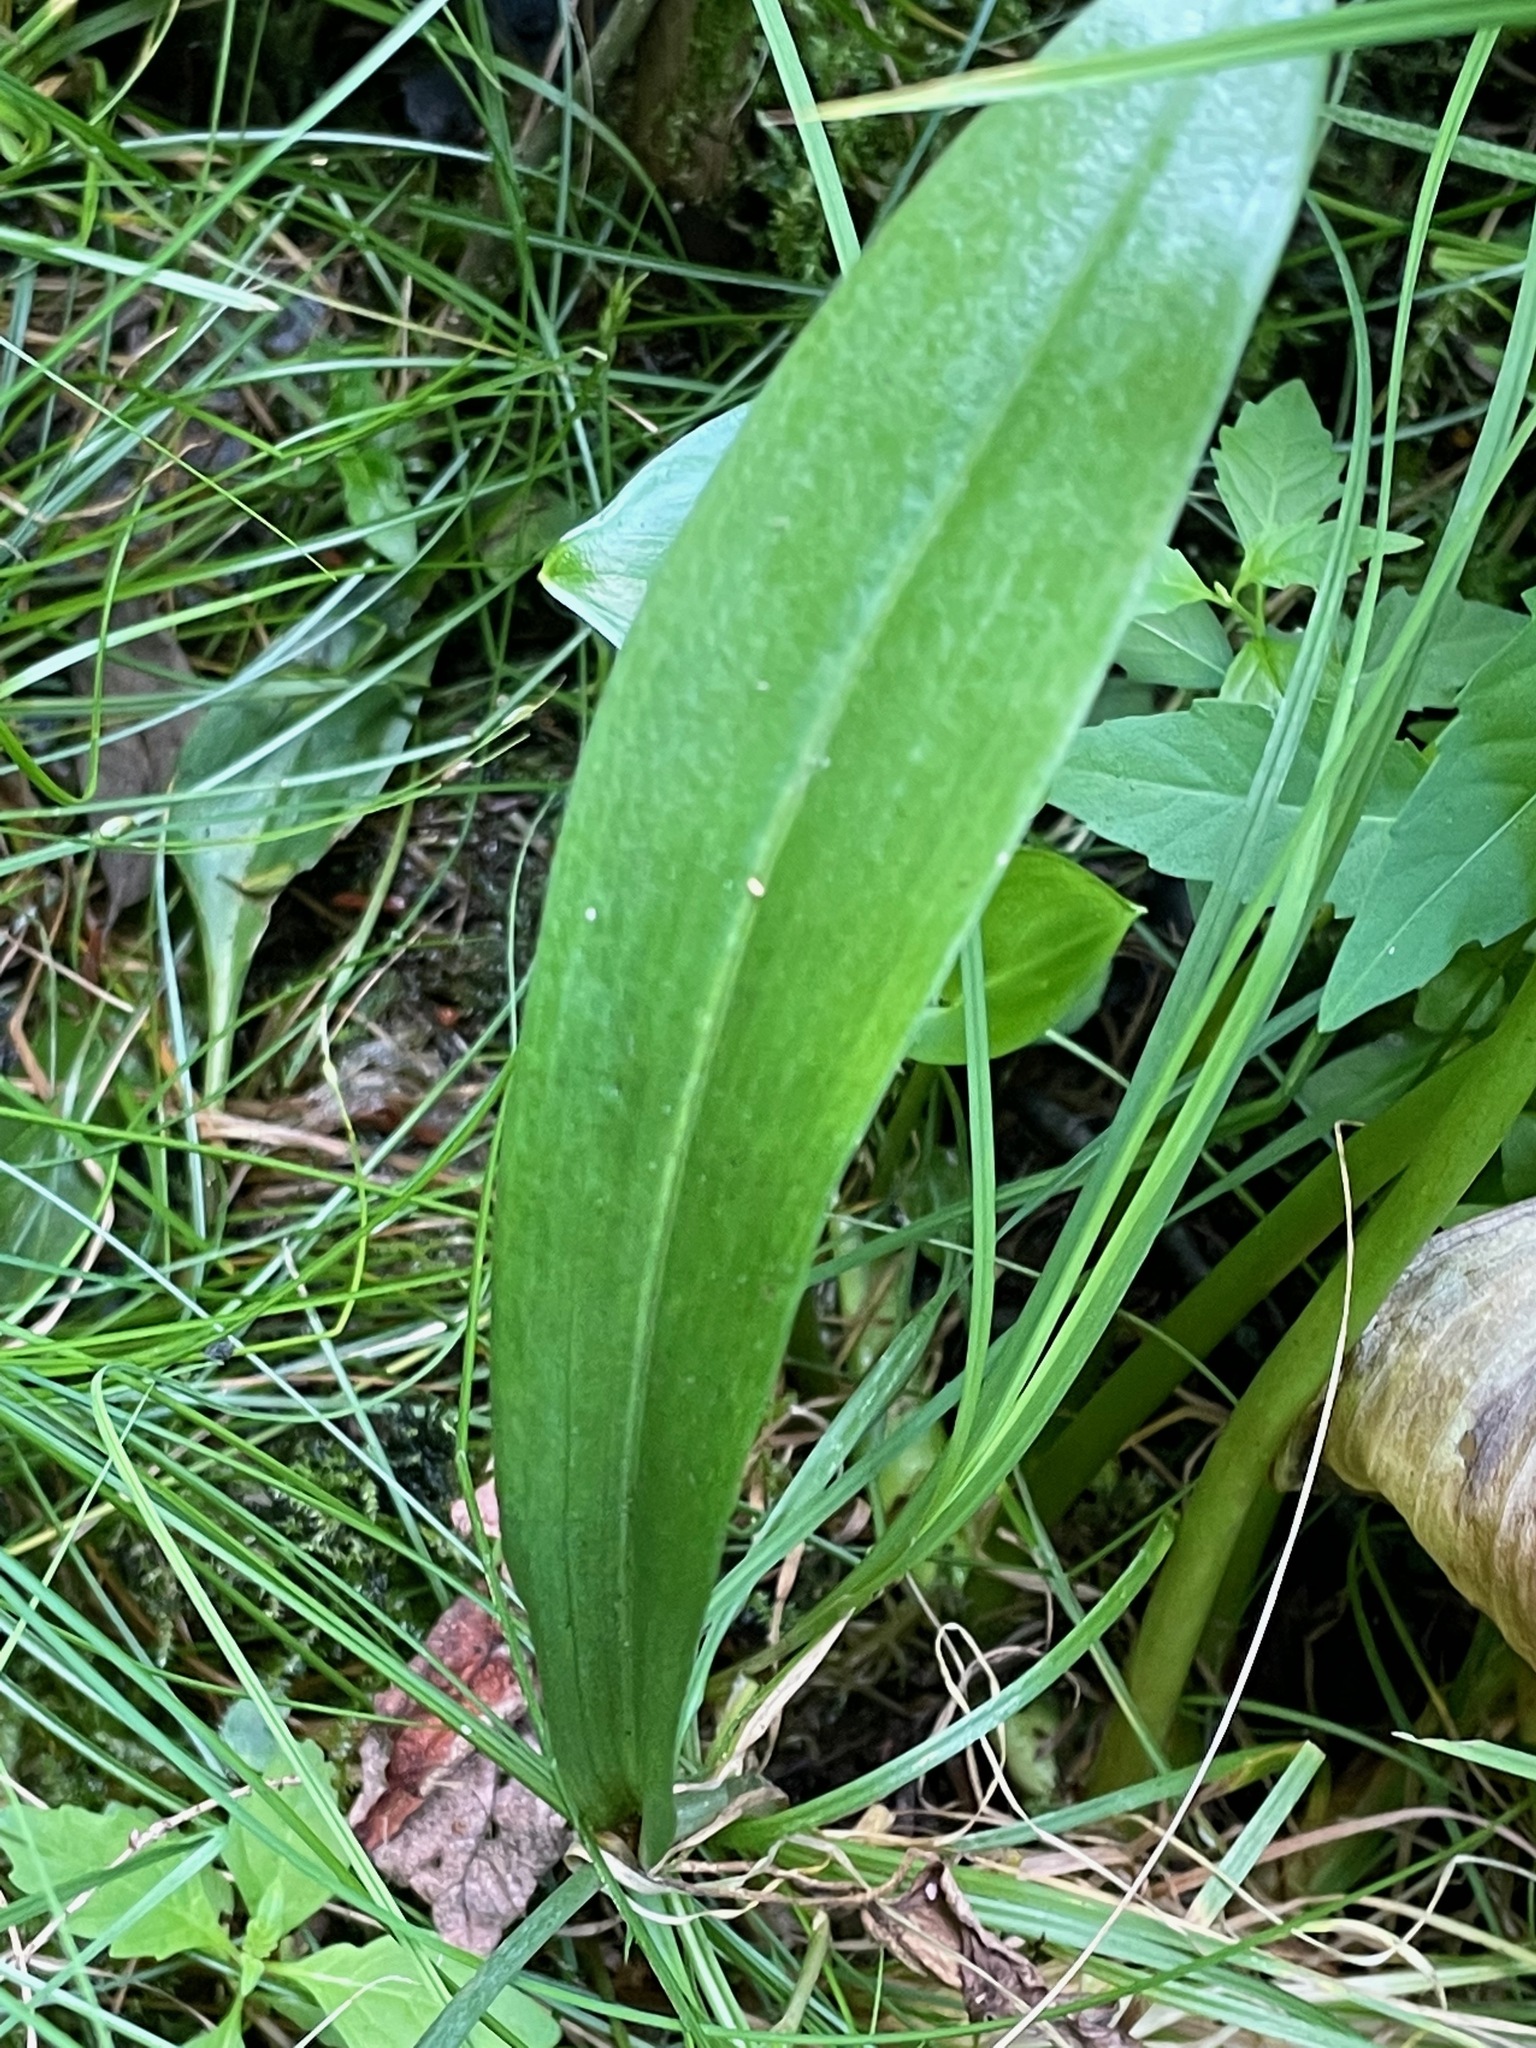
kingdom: Plantae
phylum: Tracheophyta
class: Liliopsida
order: Asparagales
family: Orchidaceae
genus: Platanthera
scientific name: Platanthera clavellata
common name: Club-spur orchid
